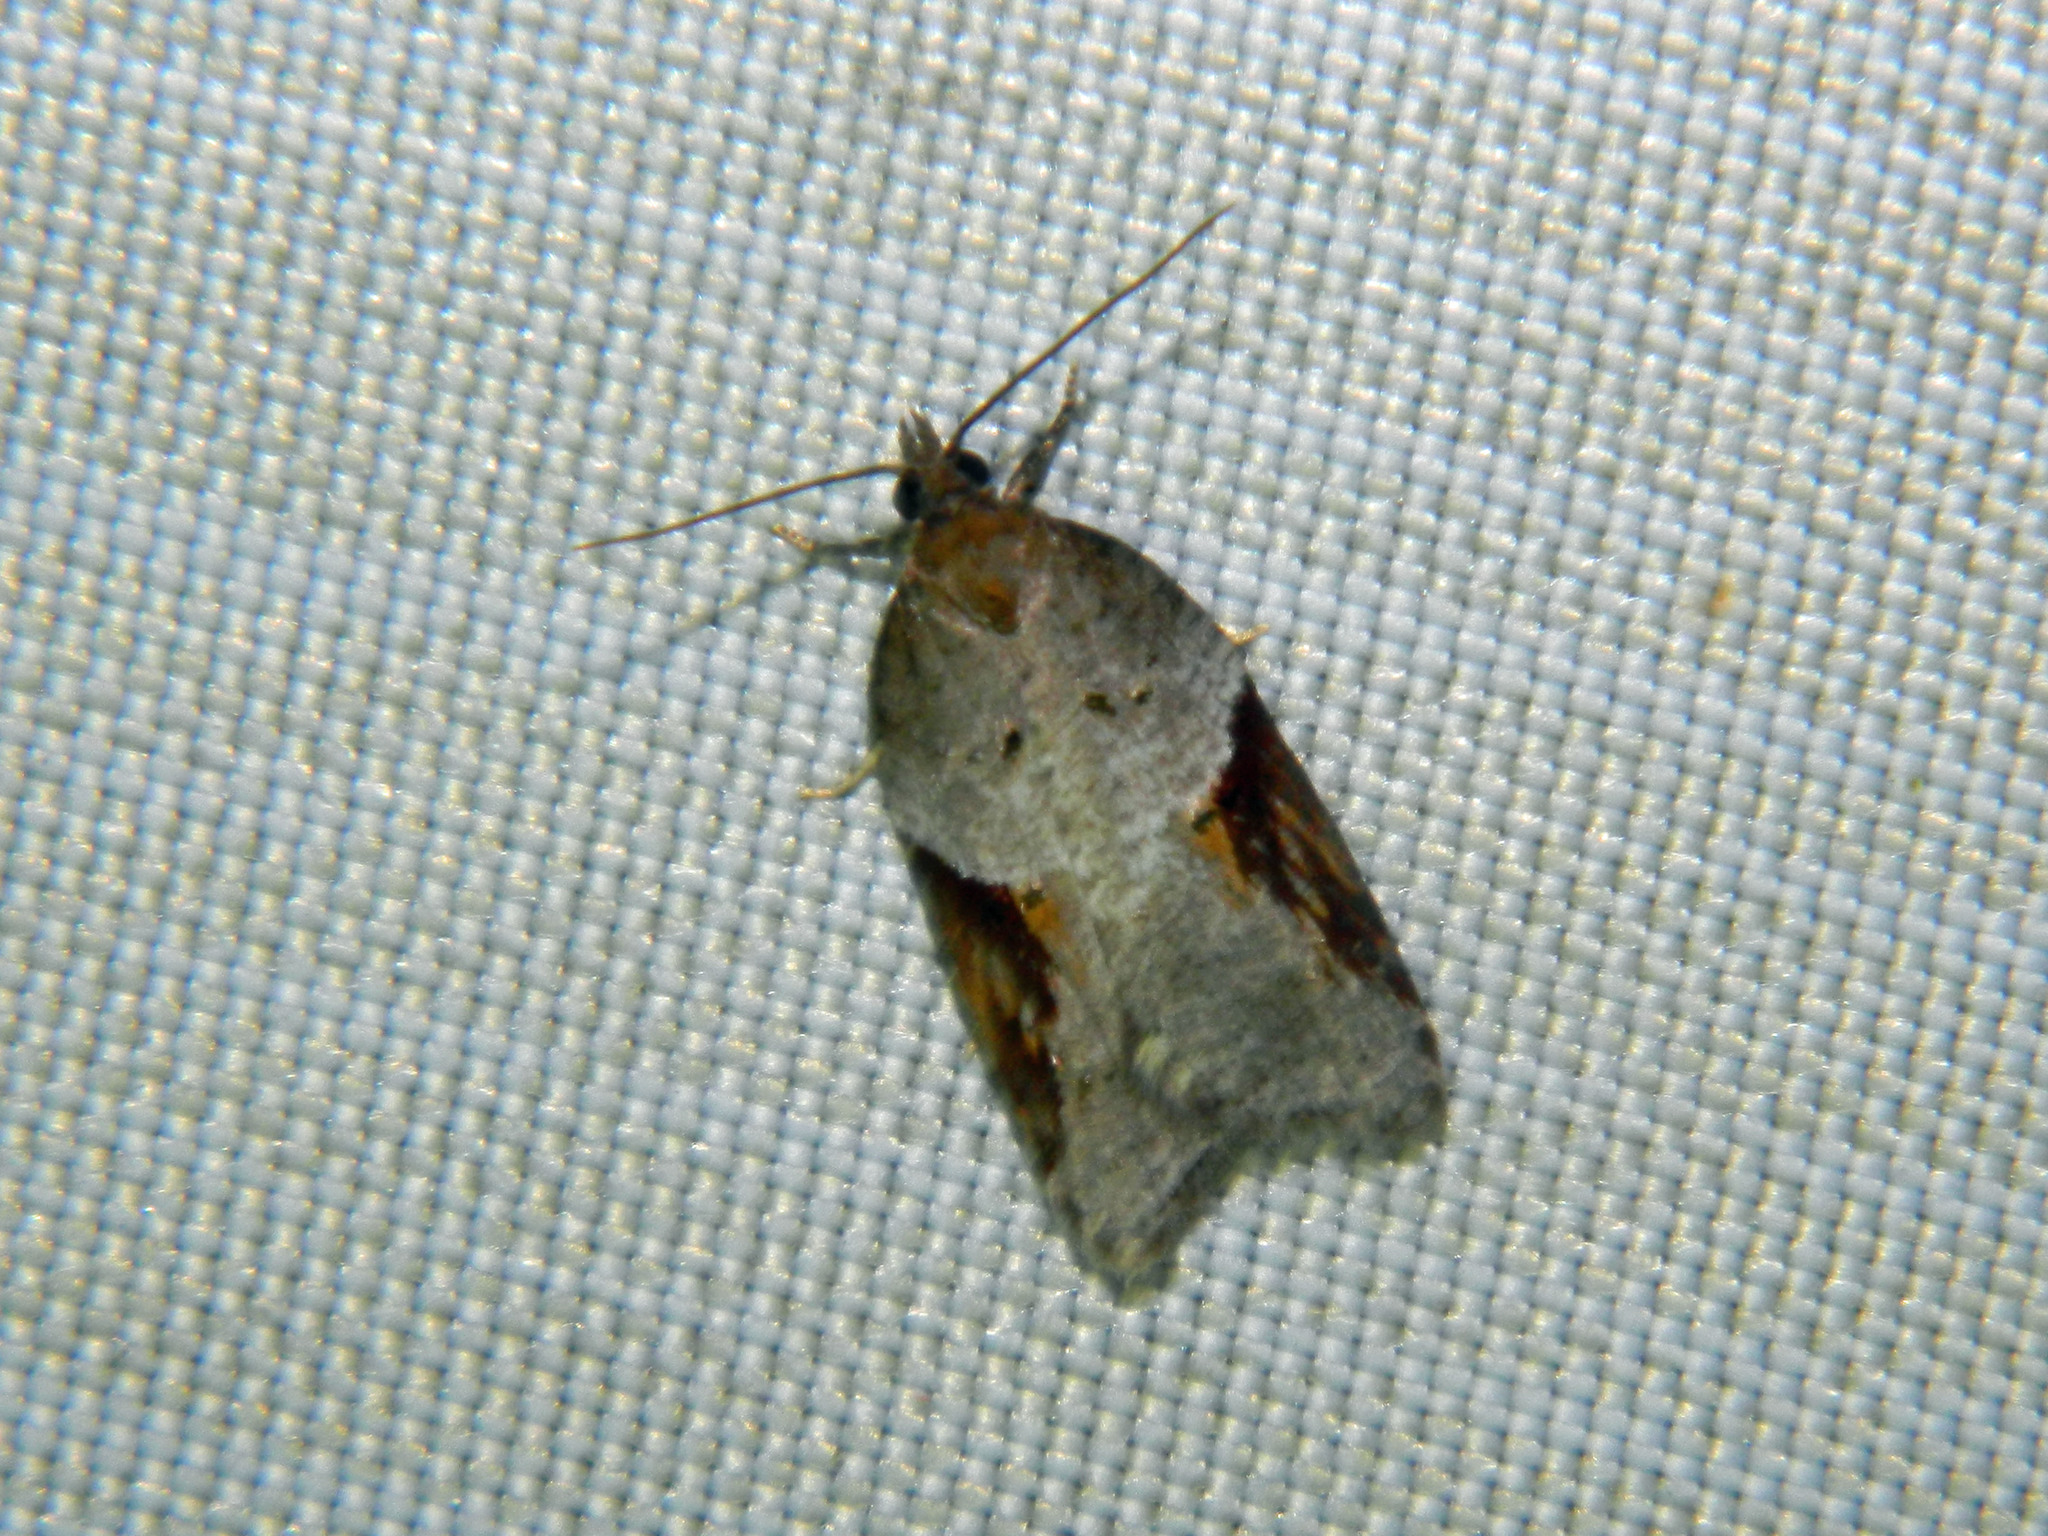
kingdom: Animalia
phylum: Arthropoda
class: Insecta
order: Lepidoptera
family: Tortricidae
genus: Acleris
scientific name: Acleris macdunnoughi
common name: Macdunnough's acleris
